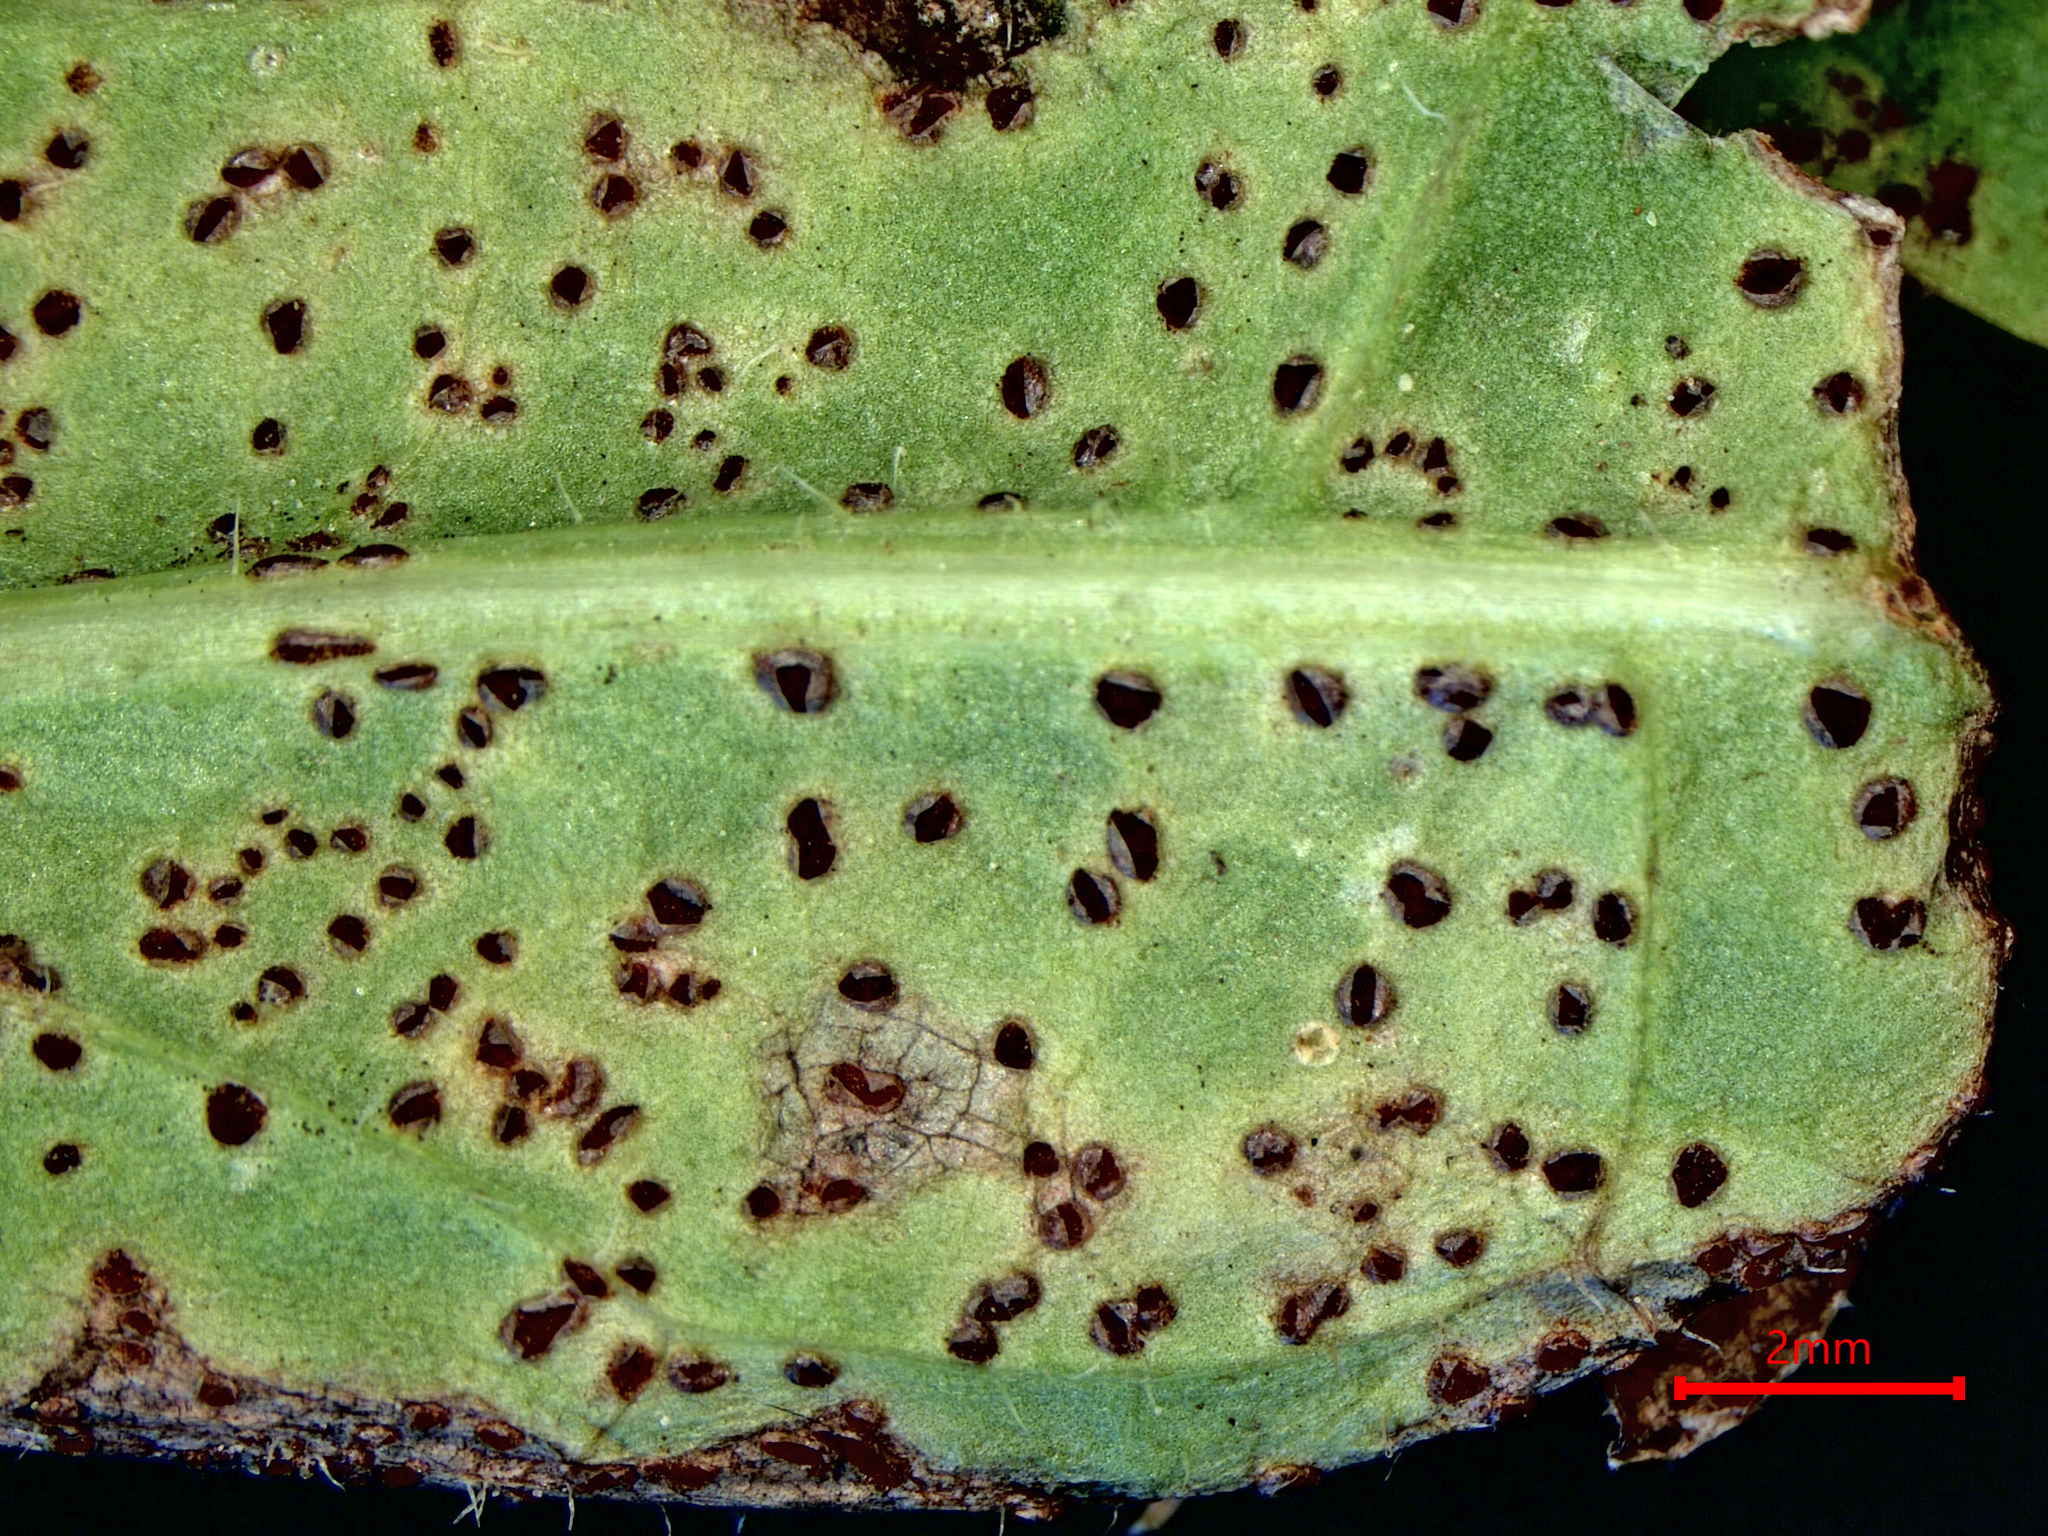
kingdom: Fungi
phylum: Basidiomycota
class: Pucciniomycetes
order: Pucciniales
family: Pucciniaceae
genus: Puccinia
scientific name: Puccinia crepidicola
